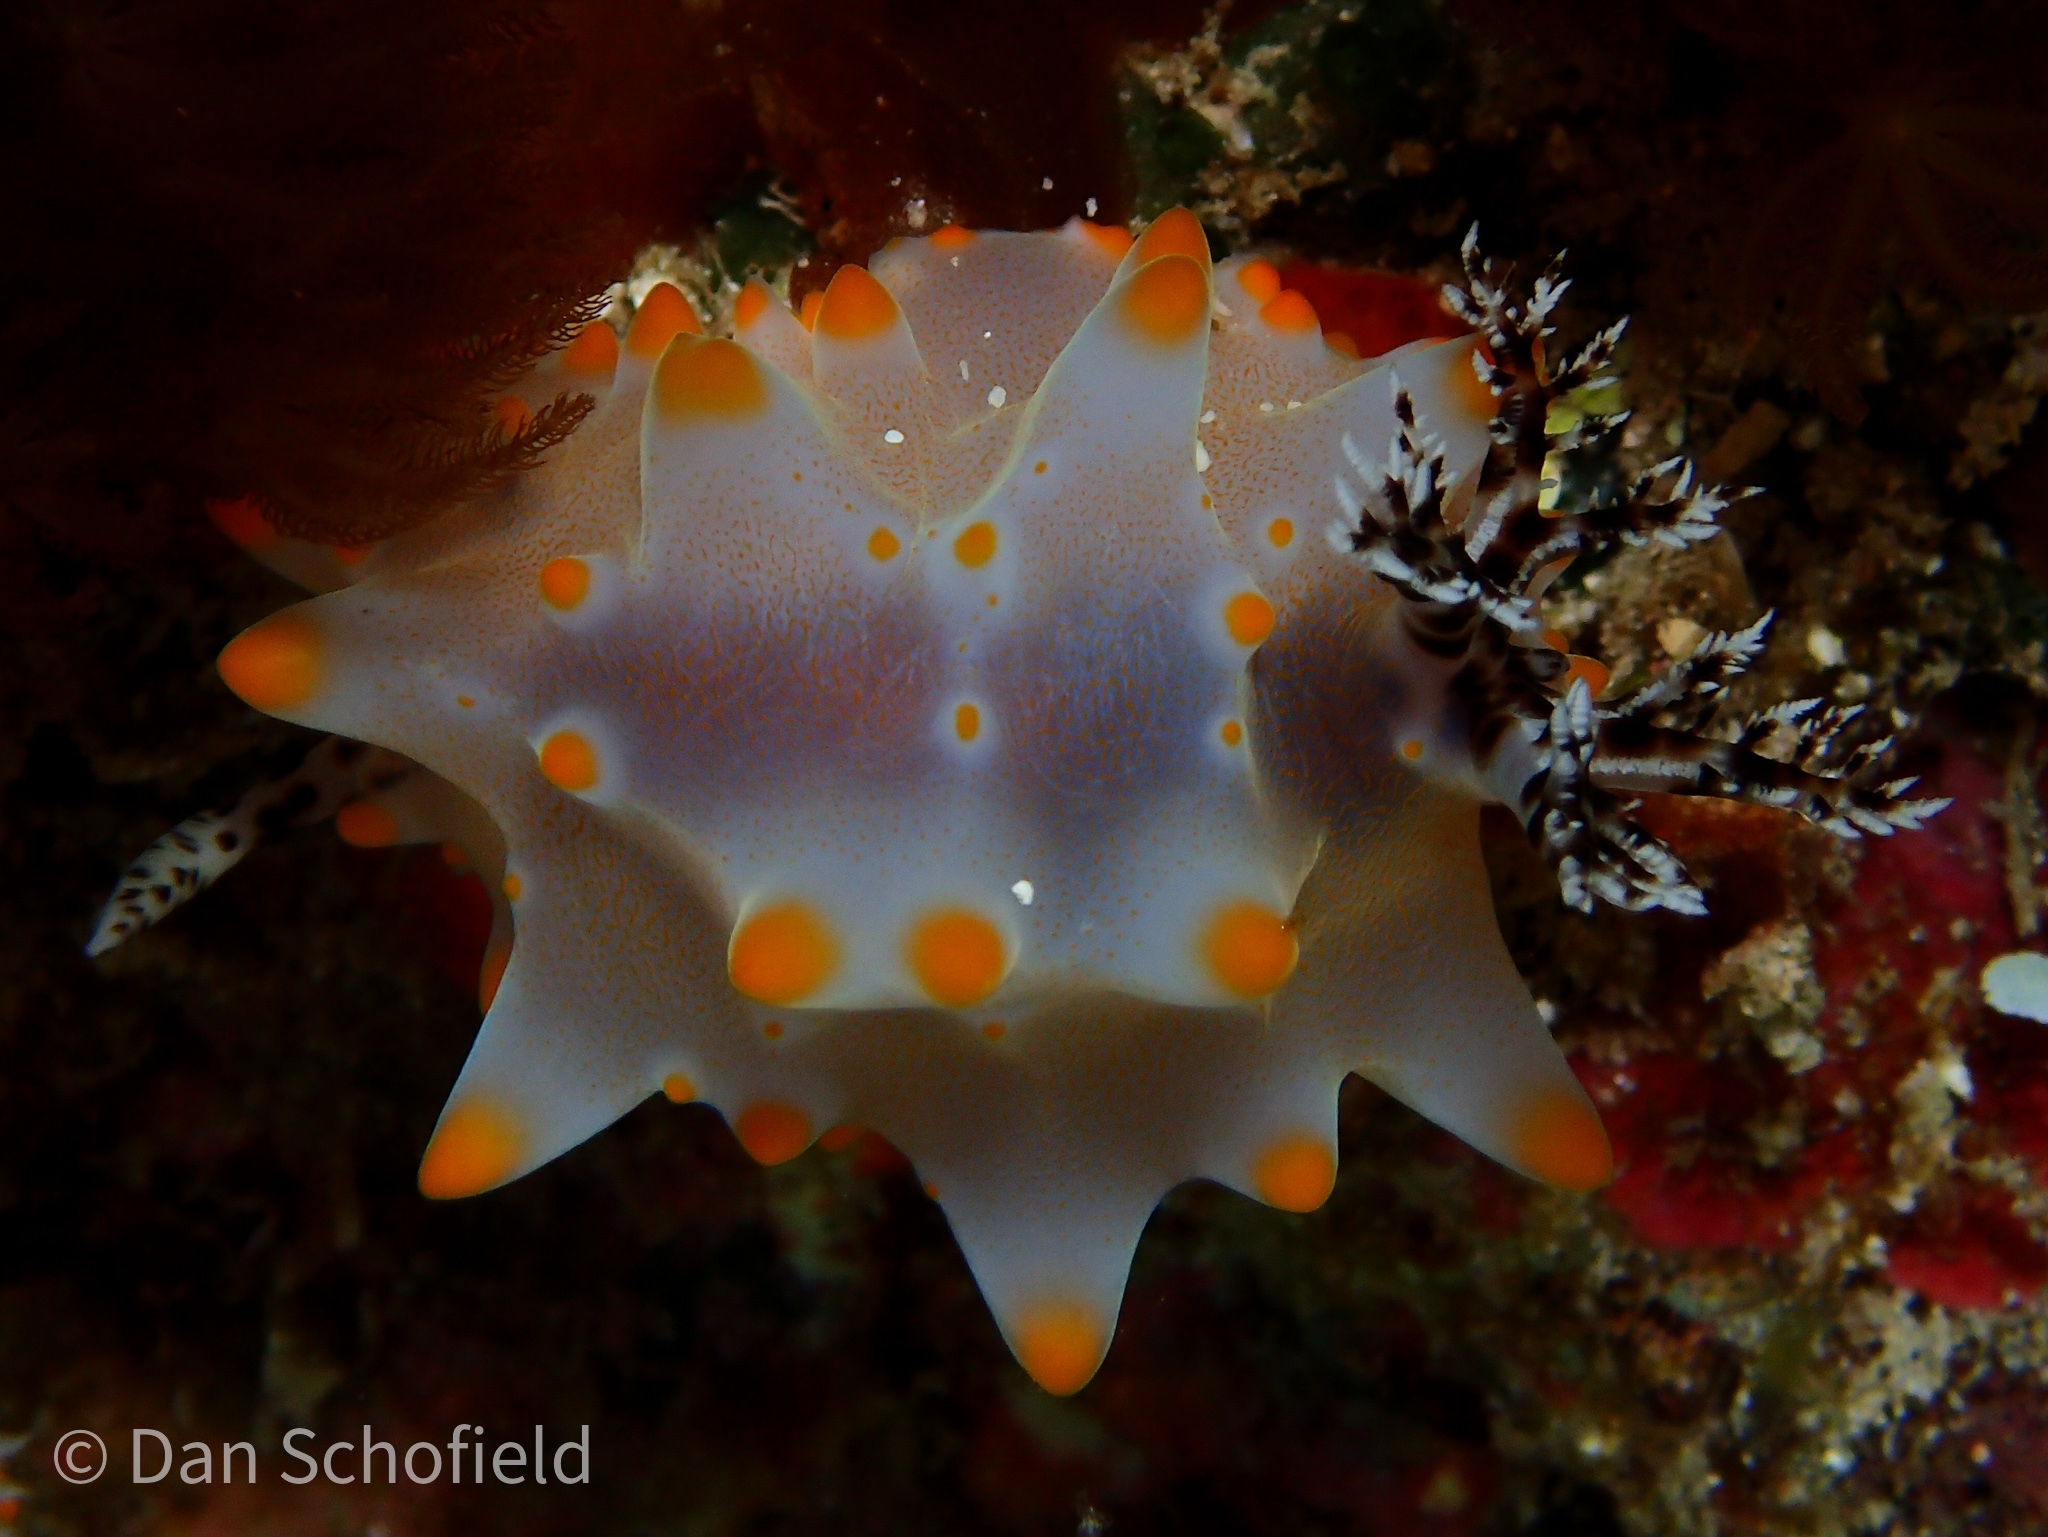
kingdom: Animalia
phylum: Mollusca
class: Gastropoda
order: Nudibranchia
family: Discodorididae
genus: Halgerda
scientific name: Halgerda carlsoni
